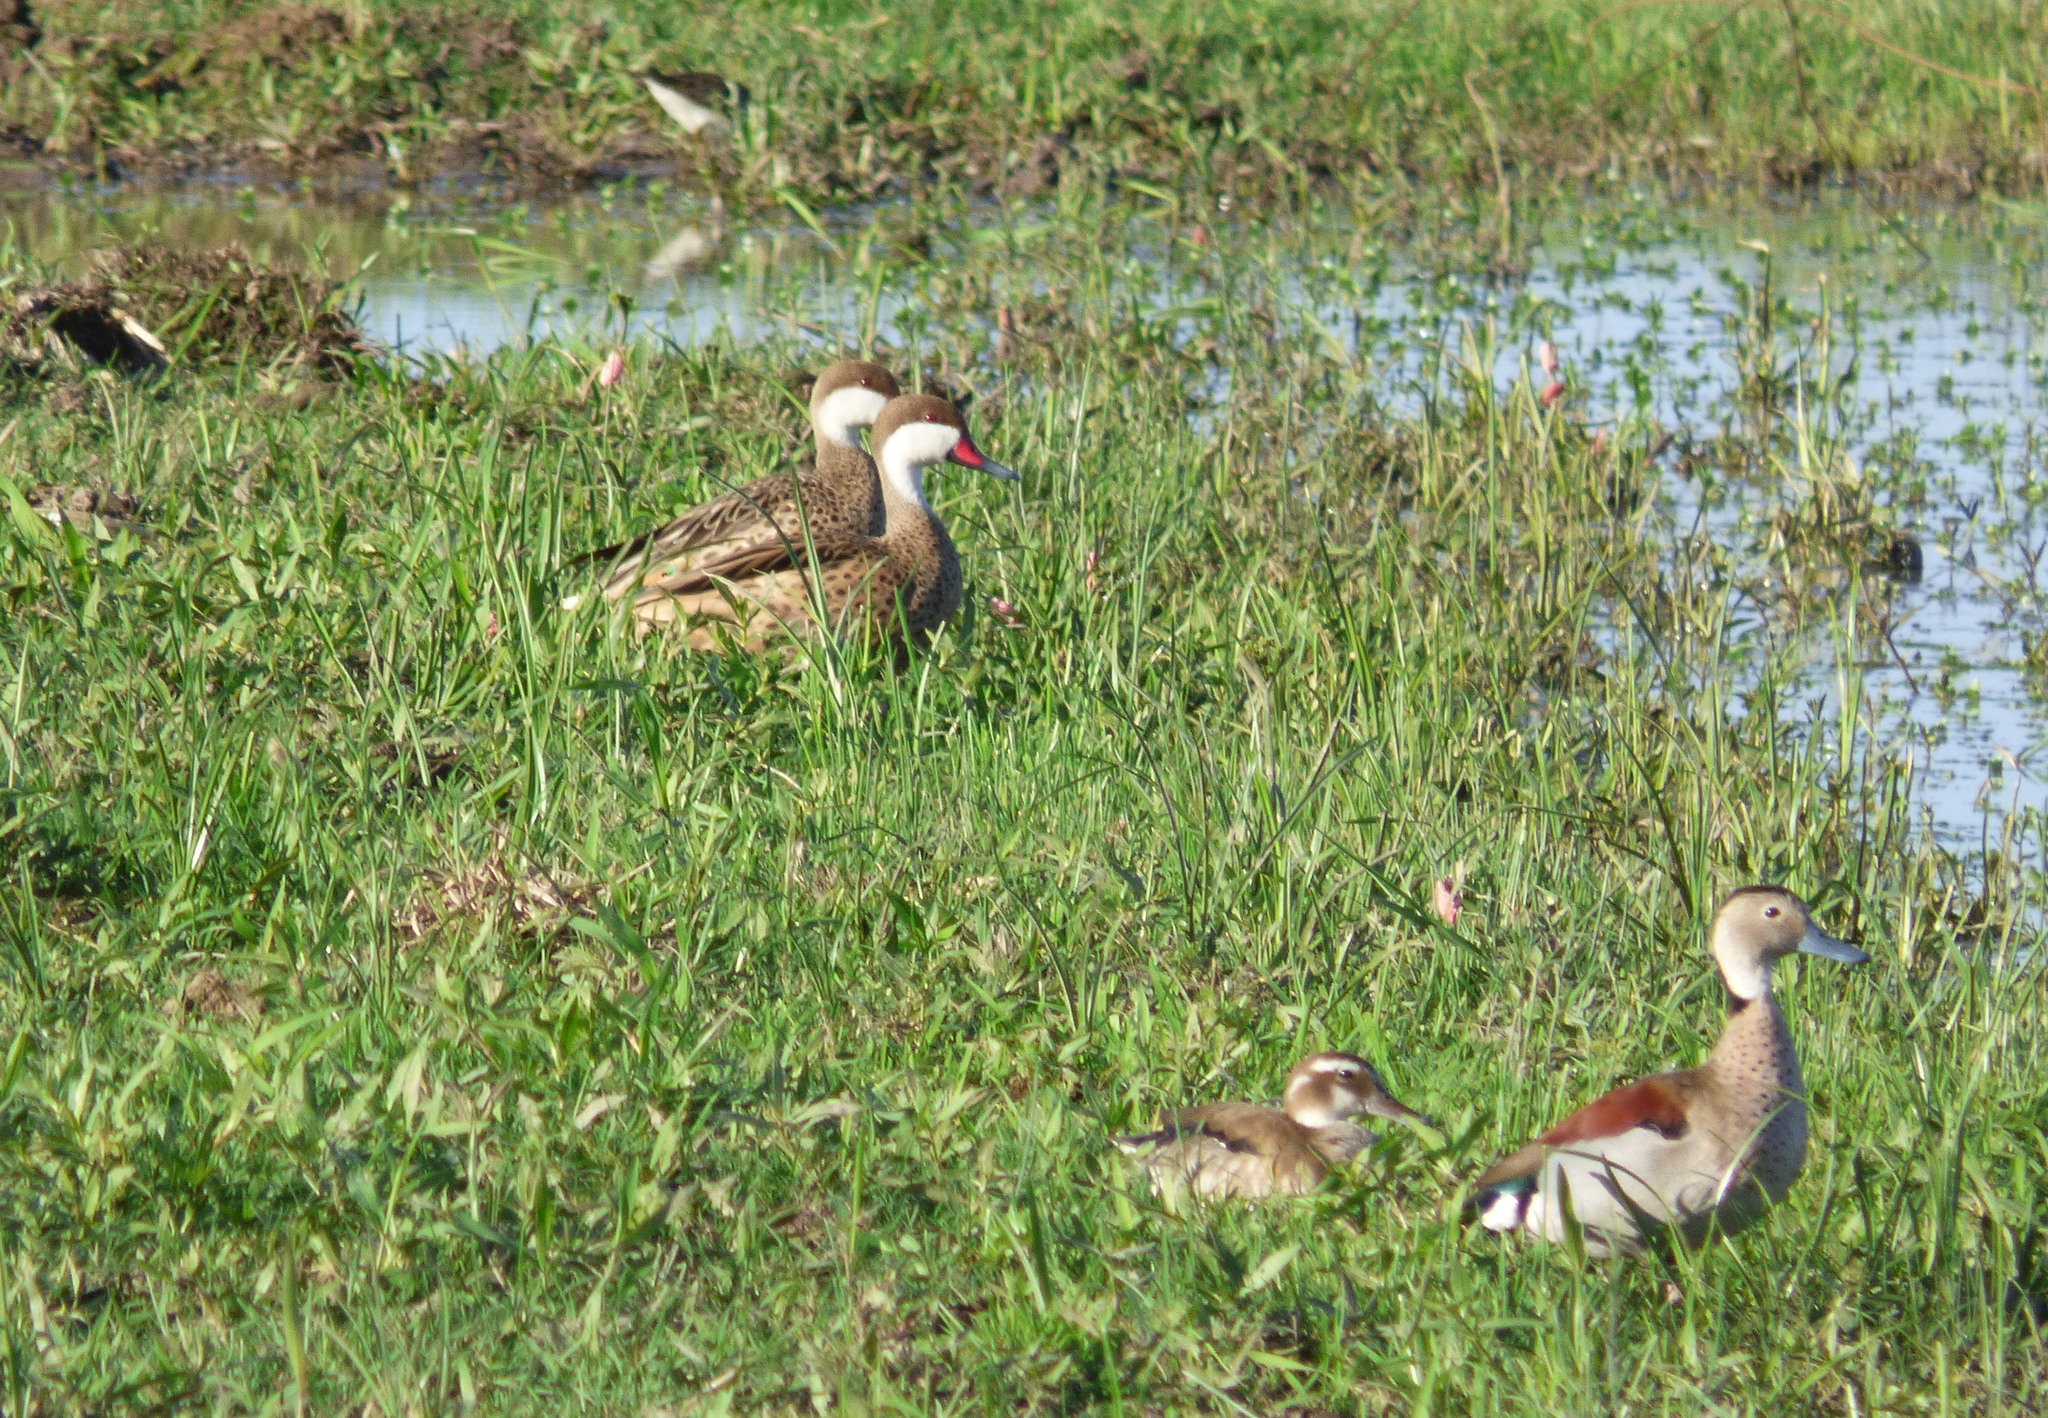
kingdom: Animalia
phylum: Chordata
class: Aves
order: Anseriformes
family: Anatidae
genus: Anas
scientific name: Anas bahamensis
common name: White-cheeked pintail
